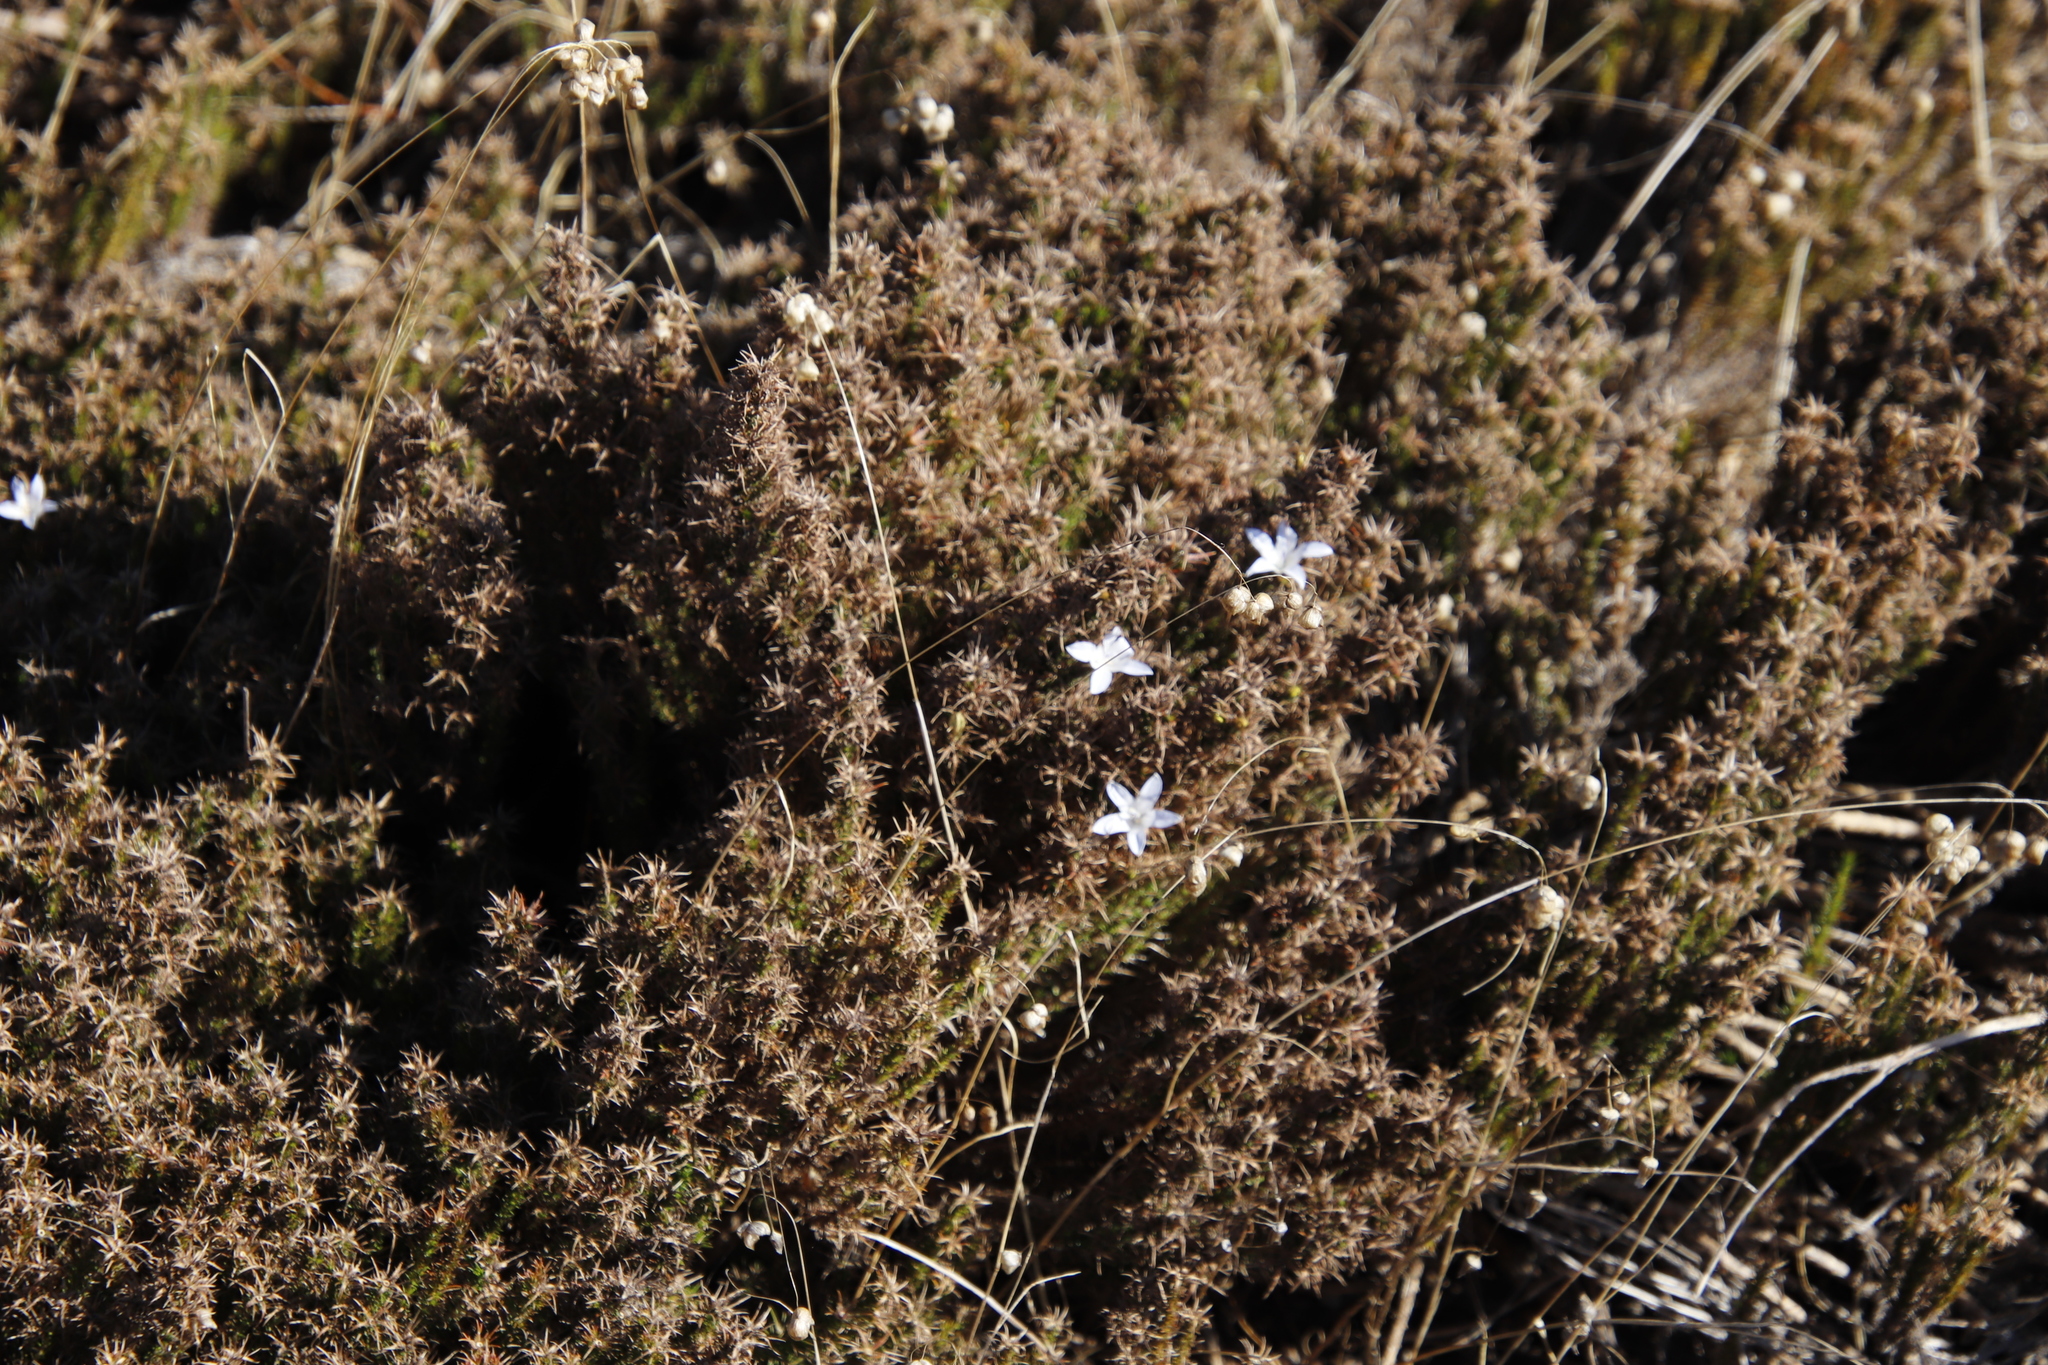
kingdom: Plantae
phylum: Tracheophyta
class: Magnoliopsida
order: Asterales
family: Campanulaceae
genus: Roella
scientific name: Roella prostrata
